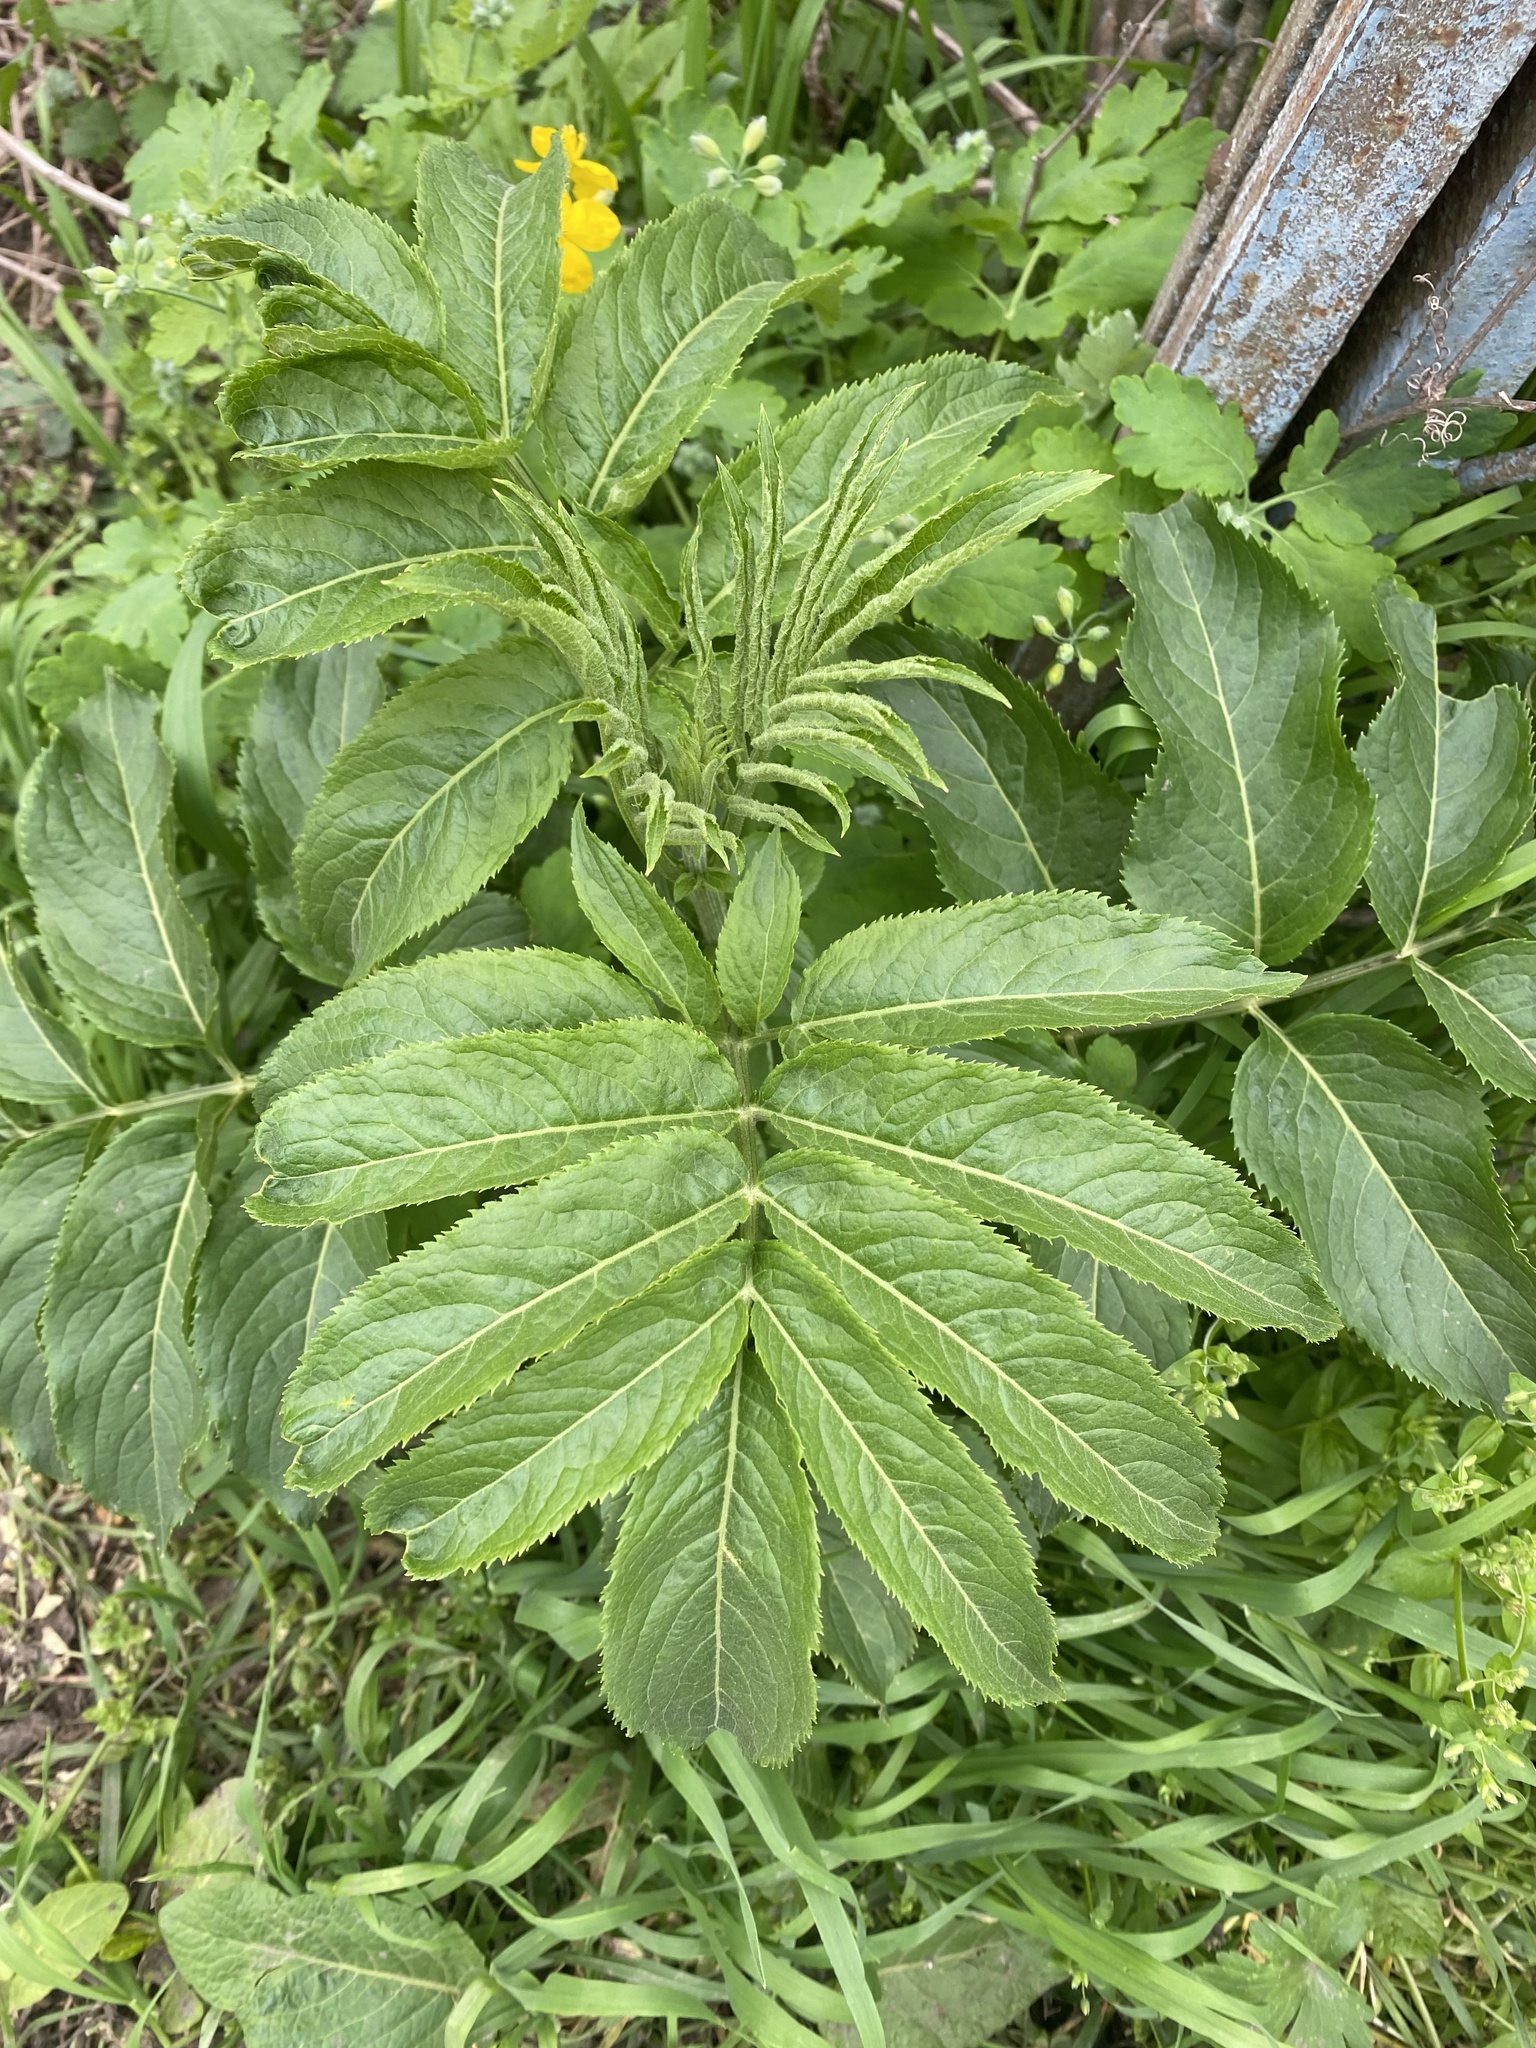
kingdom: Plantae
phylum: Tracheophyta
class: Magnoliopsida
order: Dipsacales
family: Viburnaceae
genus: Sambucus
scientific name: Sambucus ebulus
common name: Dwarf elder
